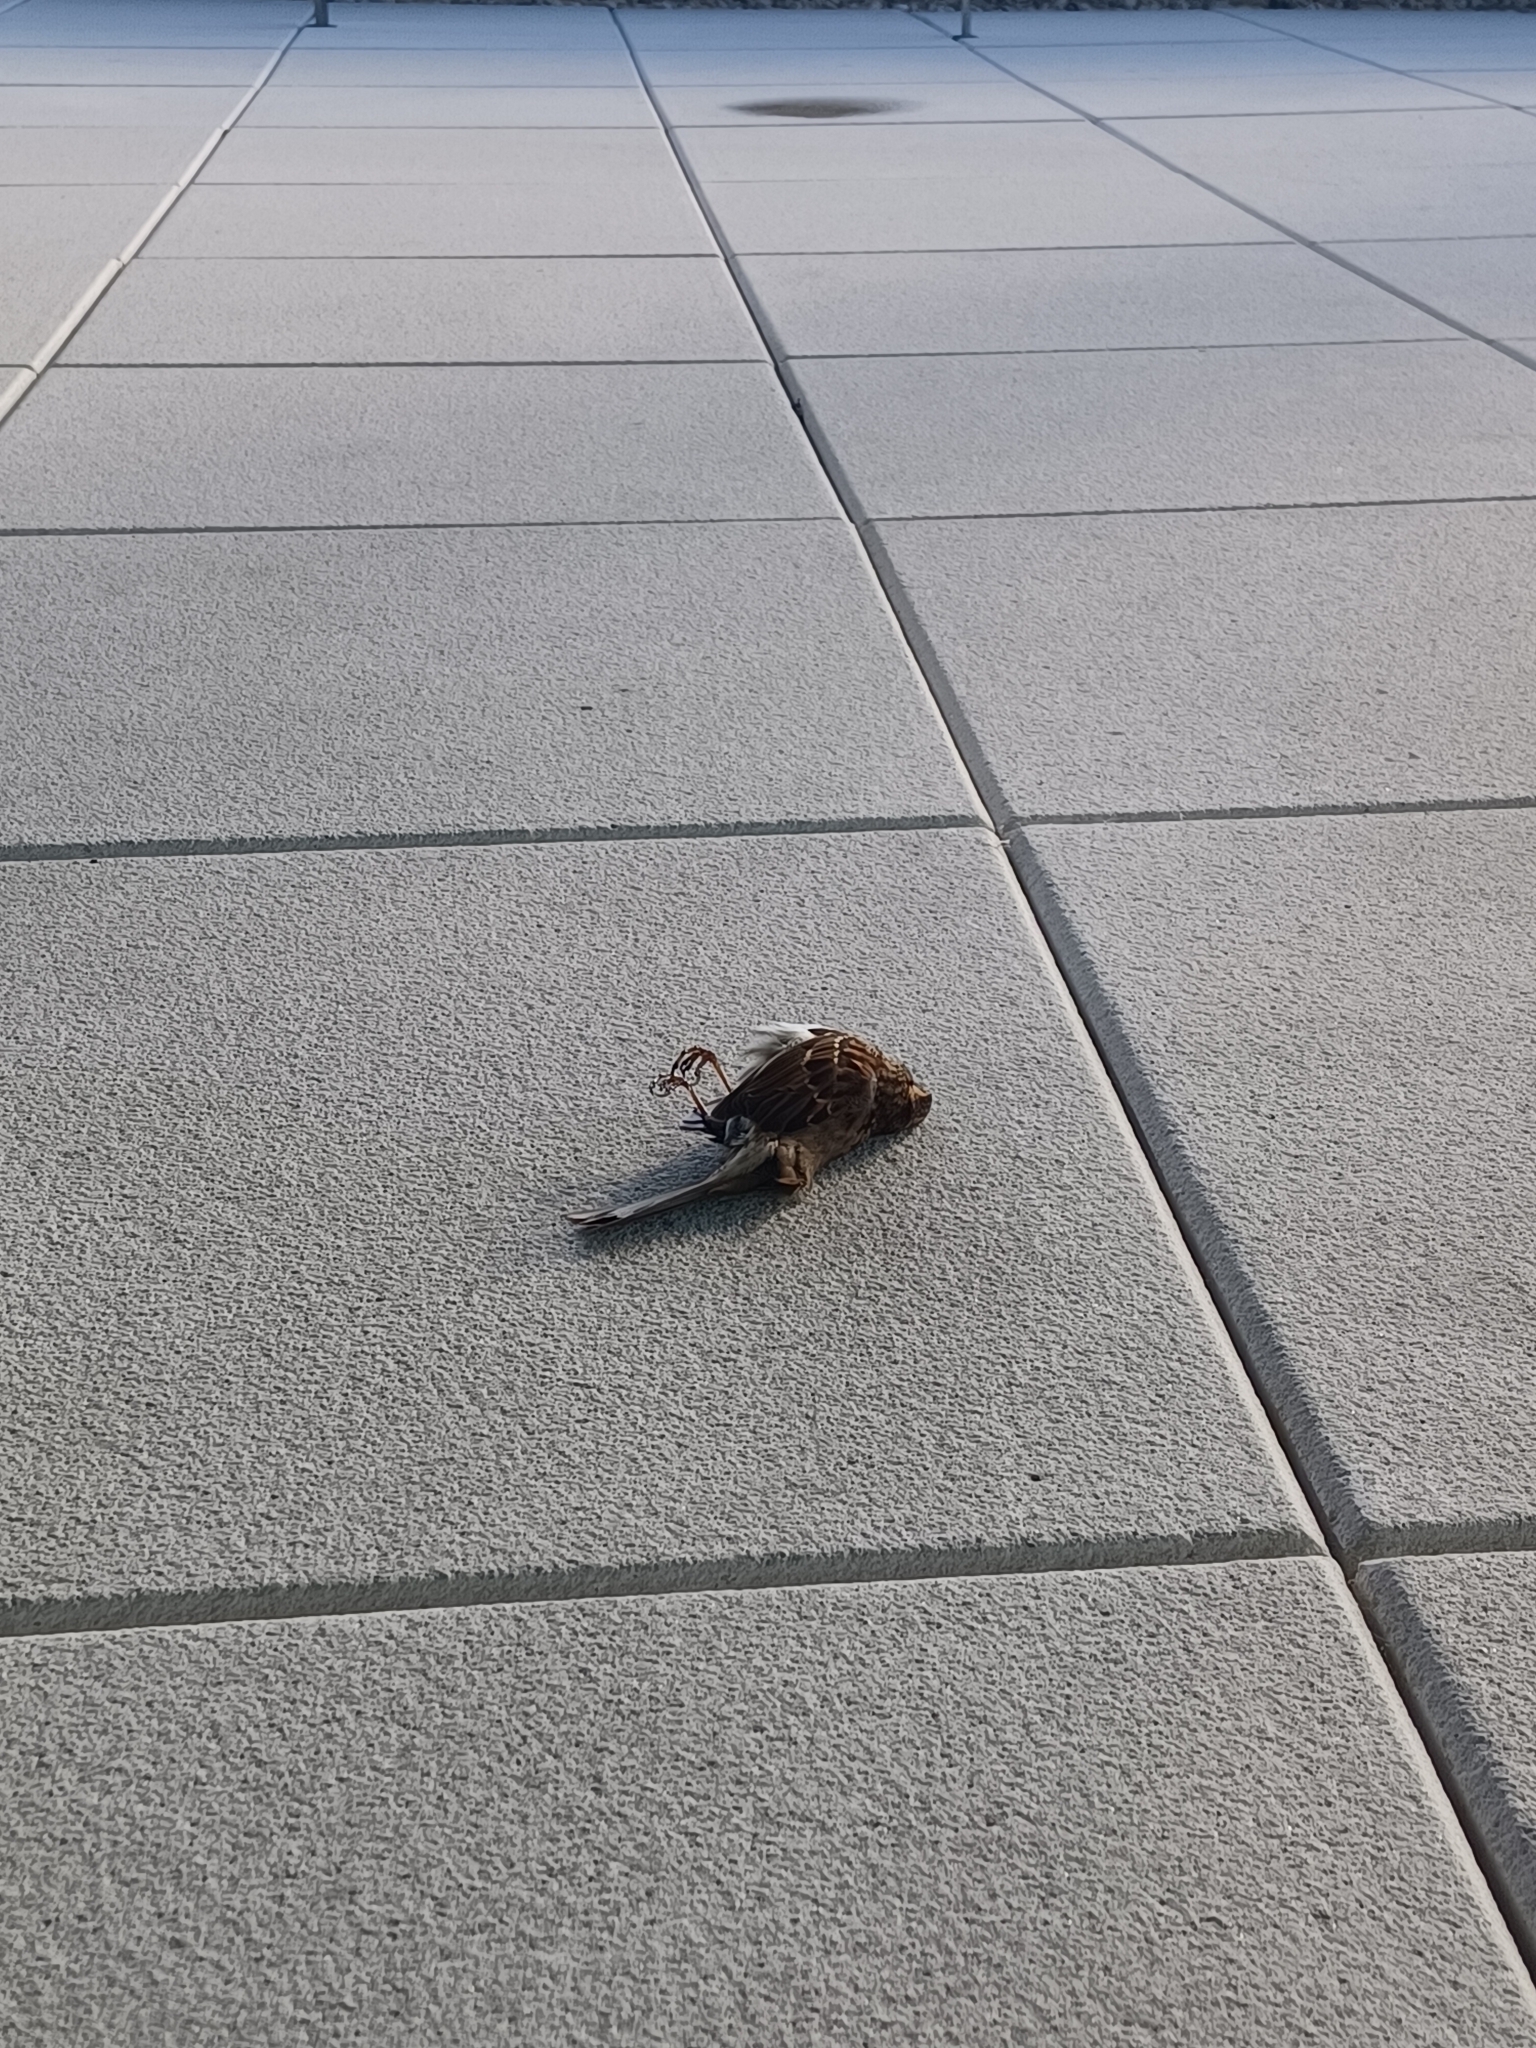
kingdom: Animalia
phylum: Chordata
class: Aves
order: Passeriformes
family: Passerellidae
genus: Zonotrichia
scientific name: Zonotrichia albicollis
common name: White-throated sparrow
